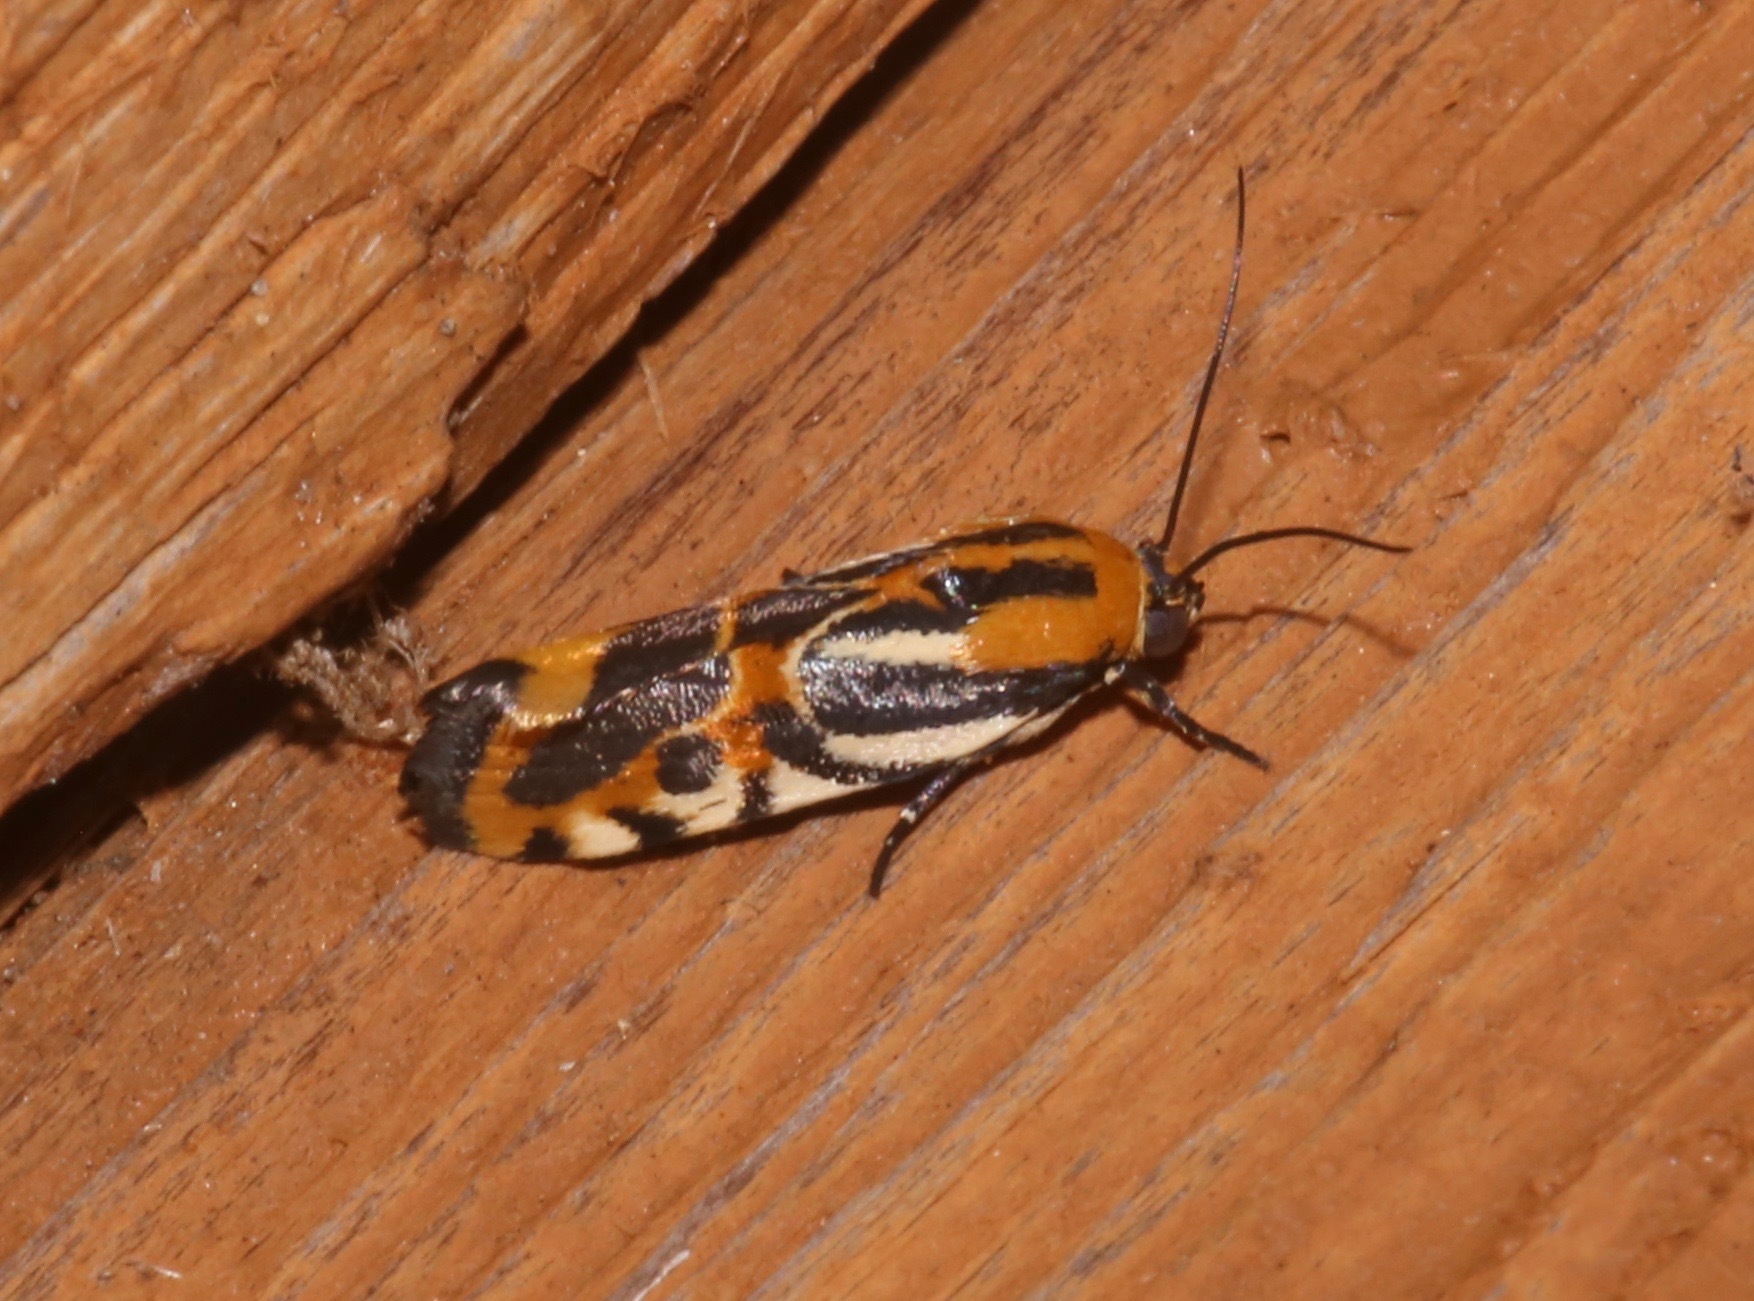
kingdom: Animalia
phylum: Arthropoda
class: Insecta
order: Lepidoptera
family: Noctuidae
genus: Acontia
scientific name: Acontia onagrus
